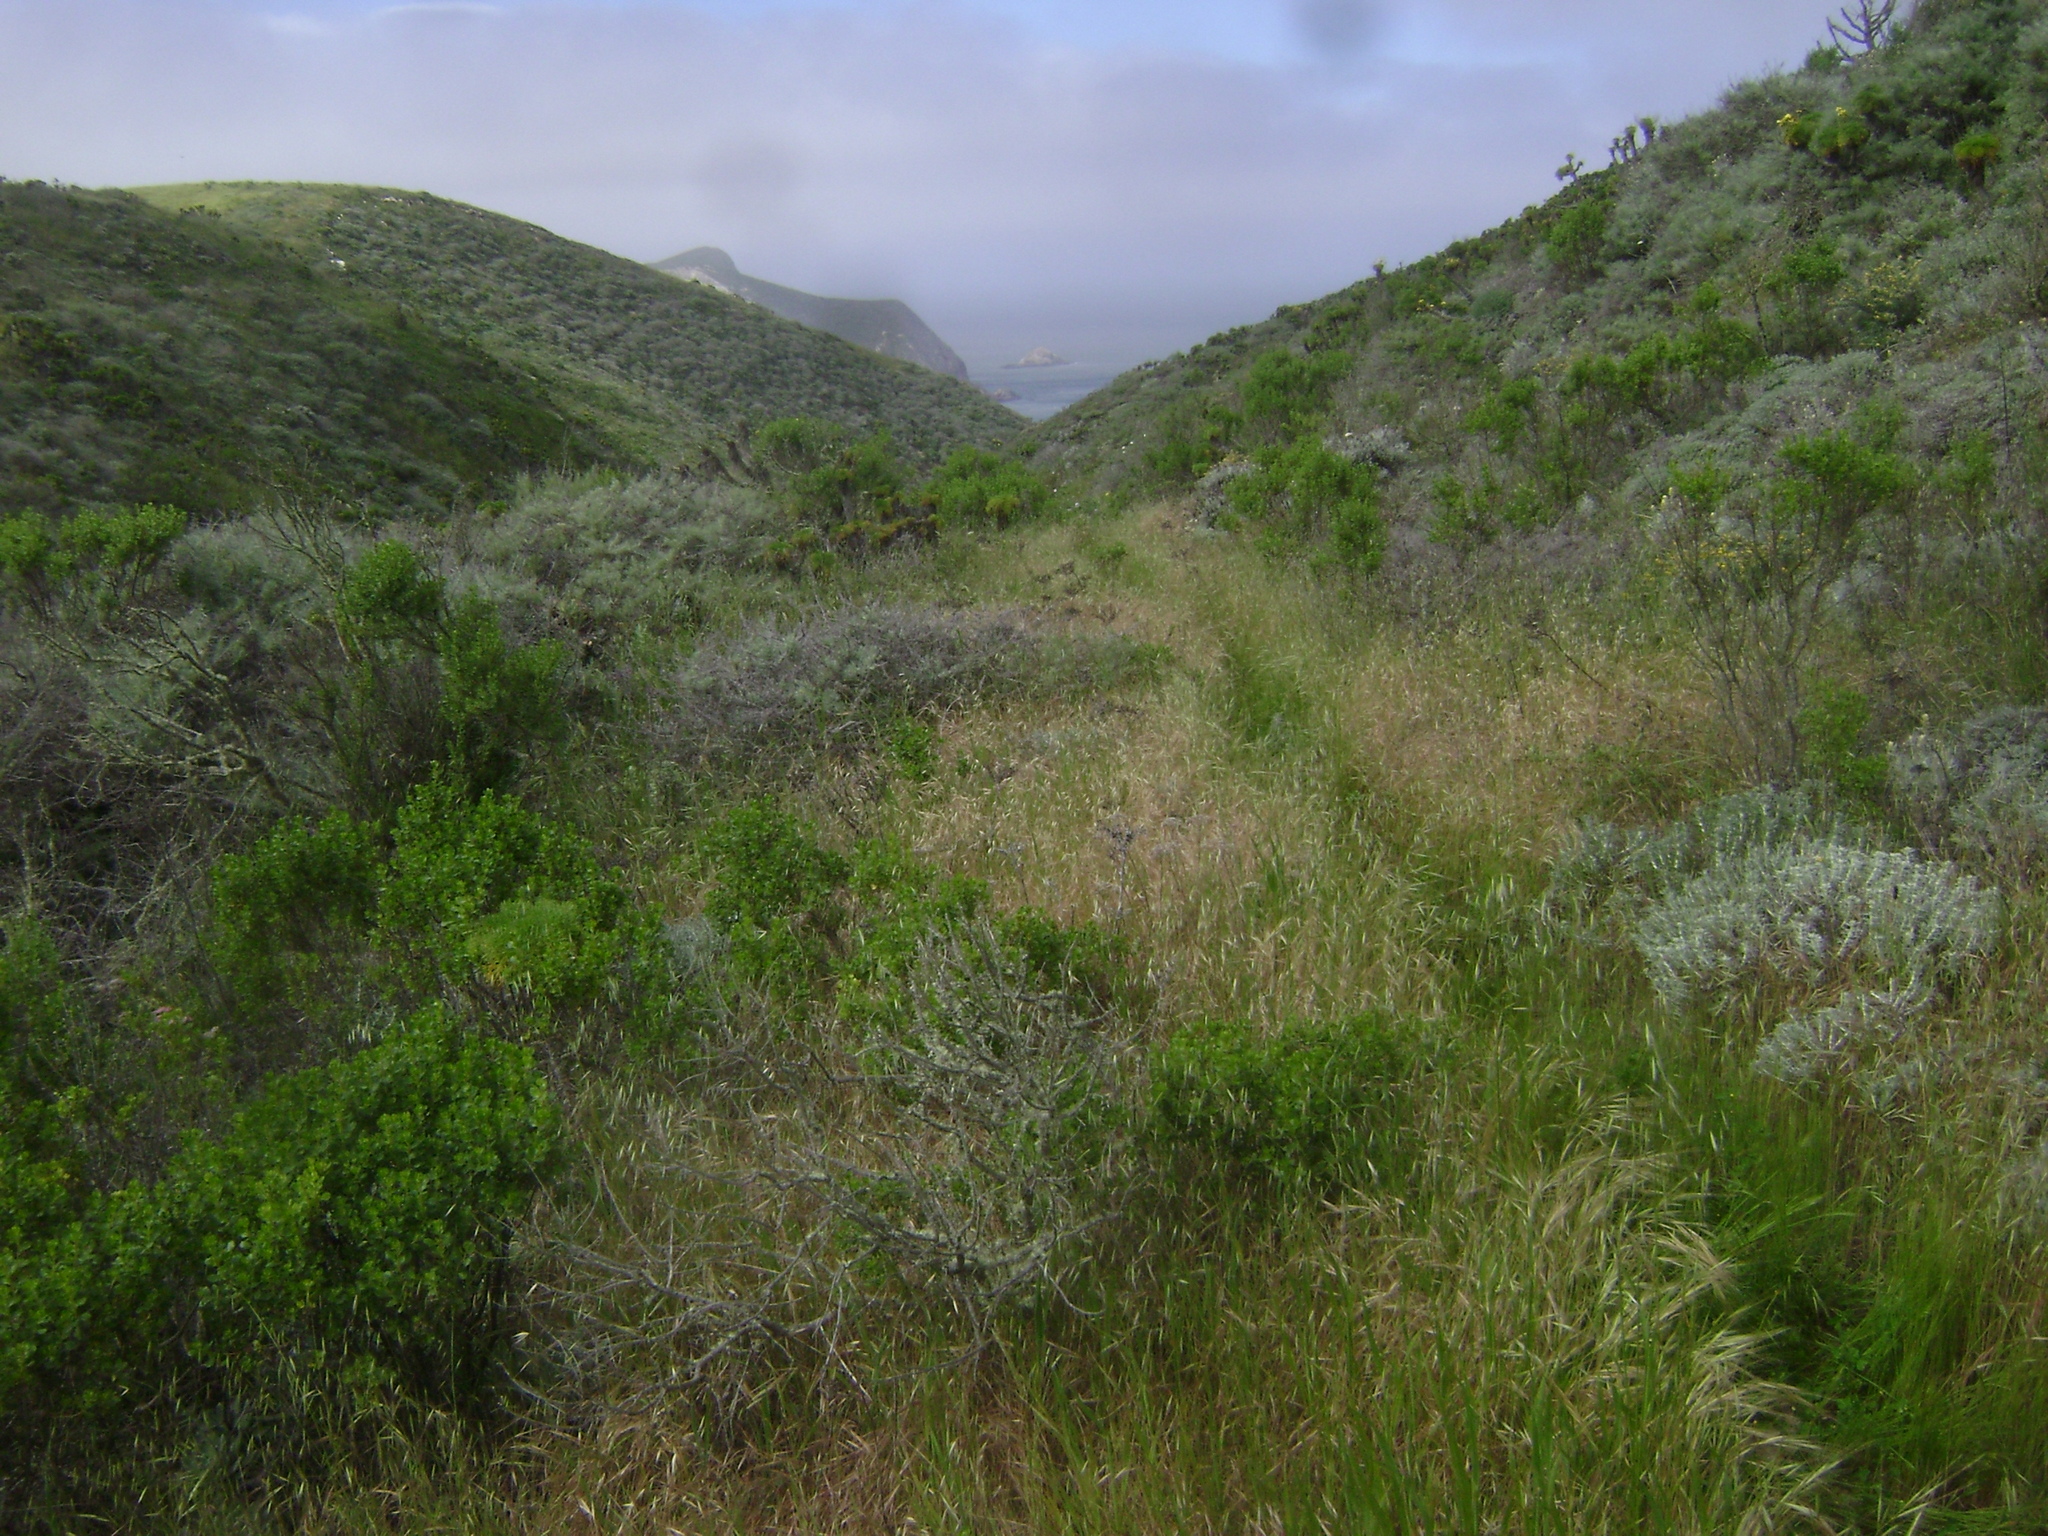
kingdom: Plantae
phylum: Tracheophyta
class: Magnoliopsida
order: Asterales
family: Asteraceae
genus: Baccharis
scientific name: Baccharis pilularis
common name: Coyotebrush
